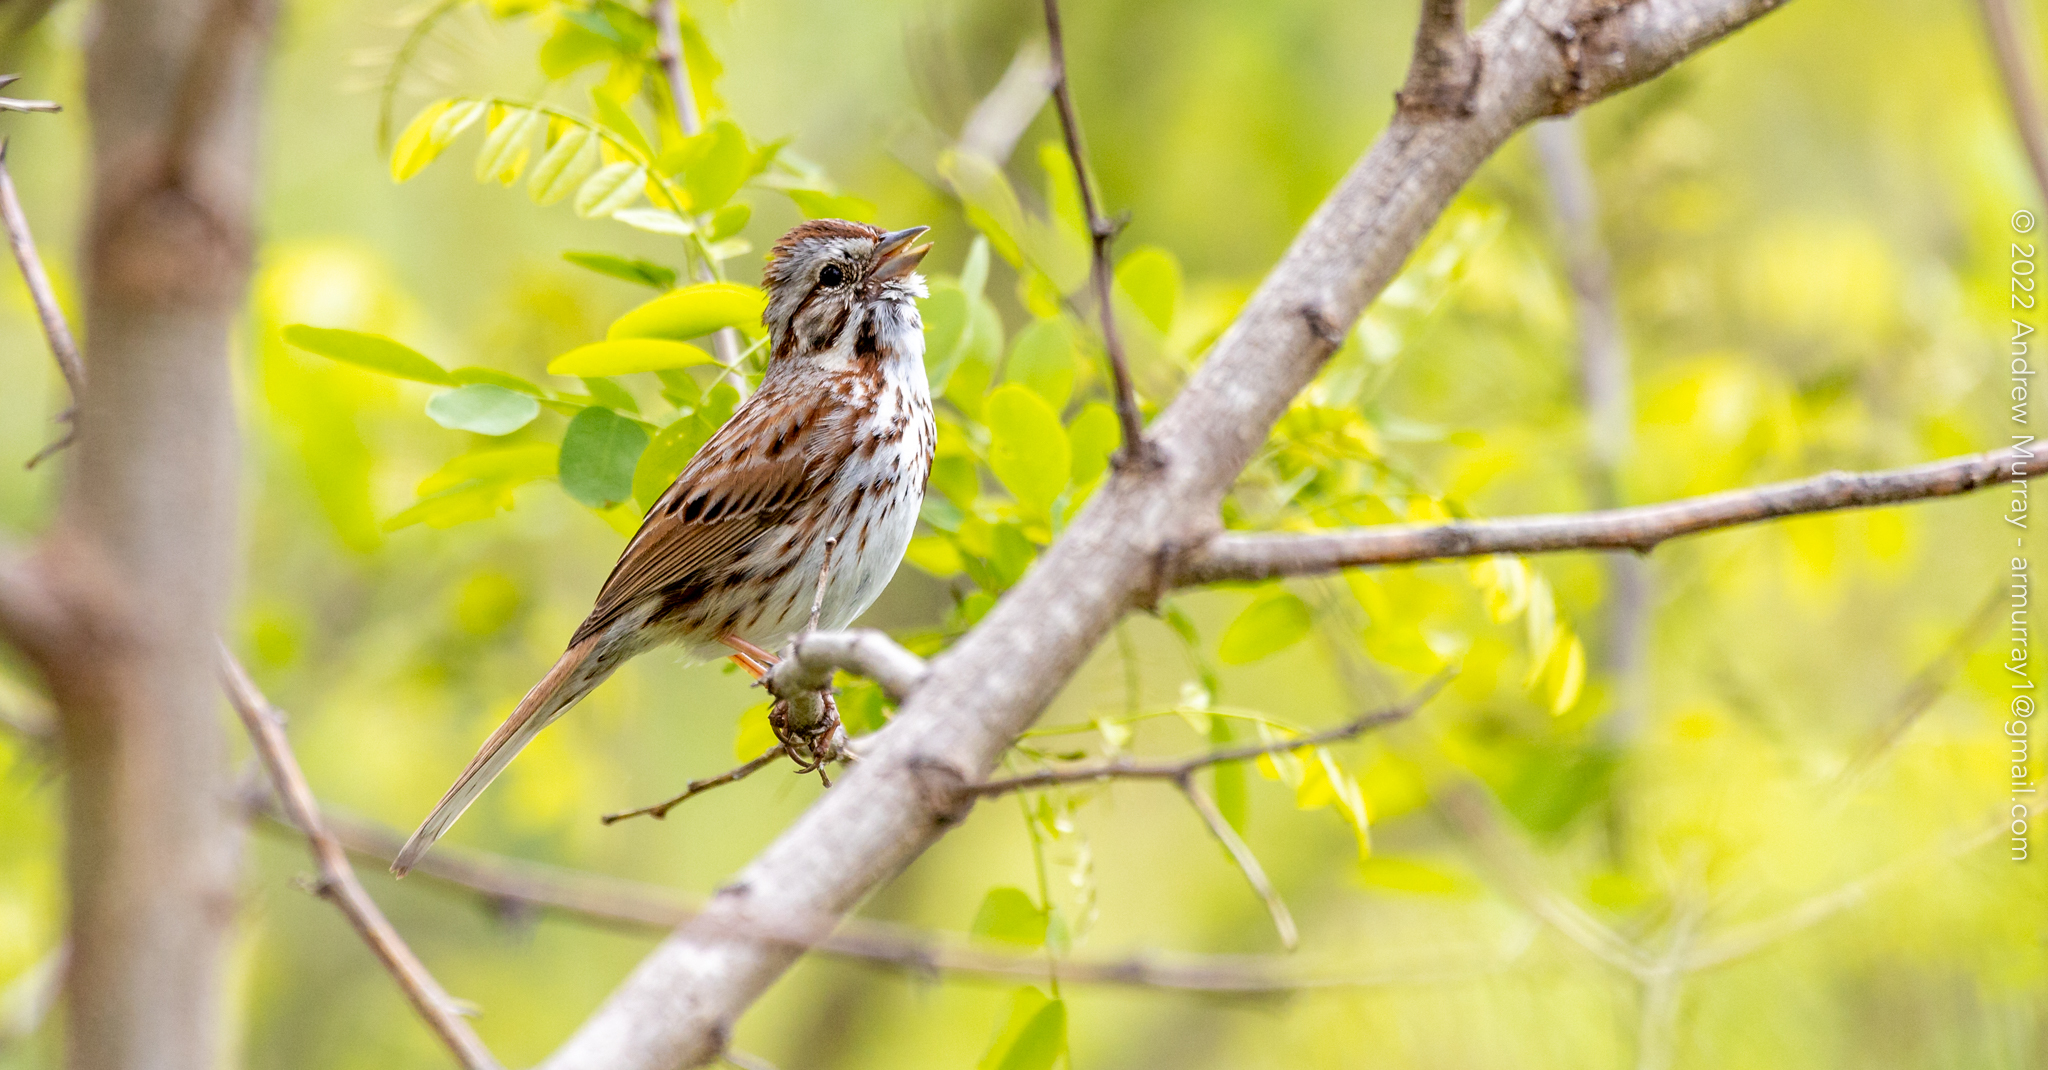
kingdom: Animalia
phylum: Chordata
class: Aves
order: Passeriformes
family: Passerellidae
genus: Melospiza
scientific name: Melospiza melodia
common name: Song sparrow
